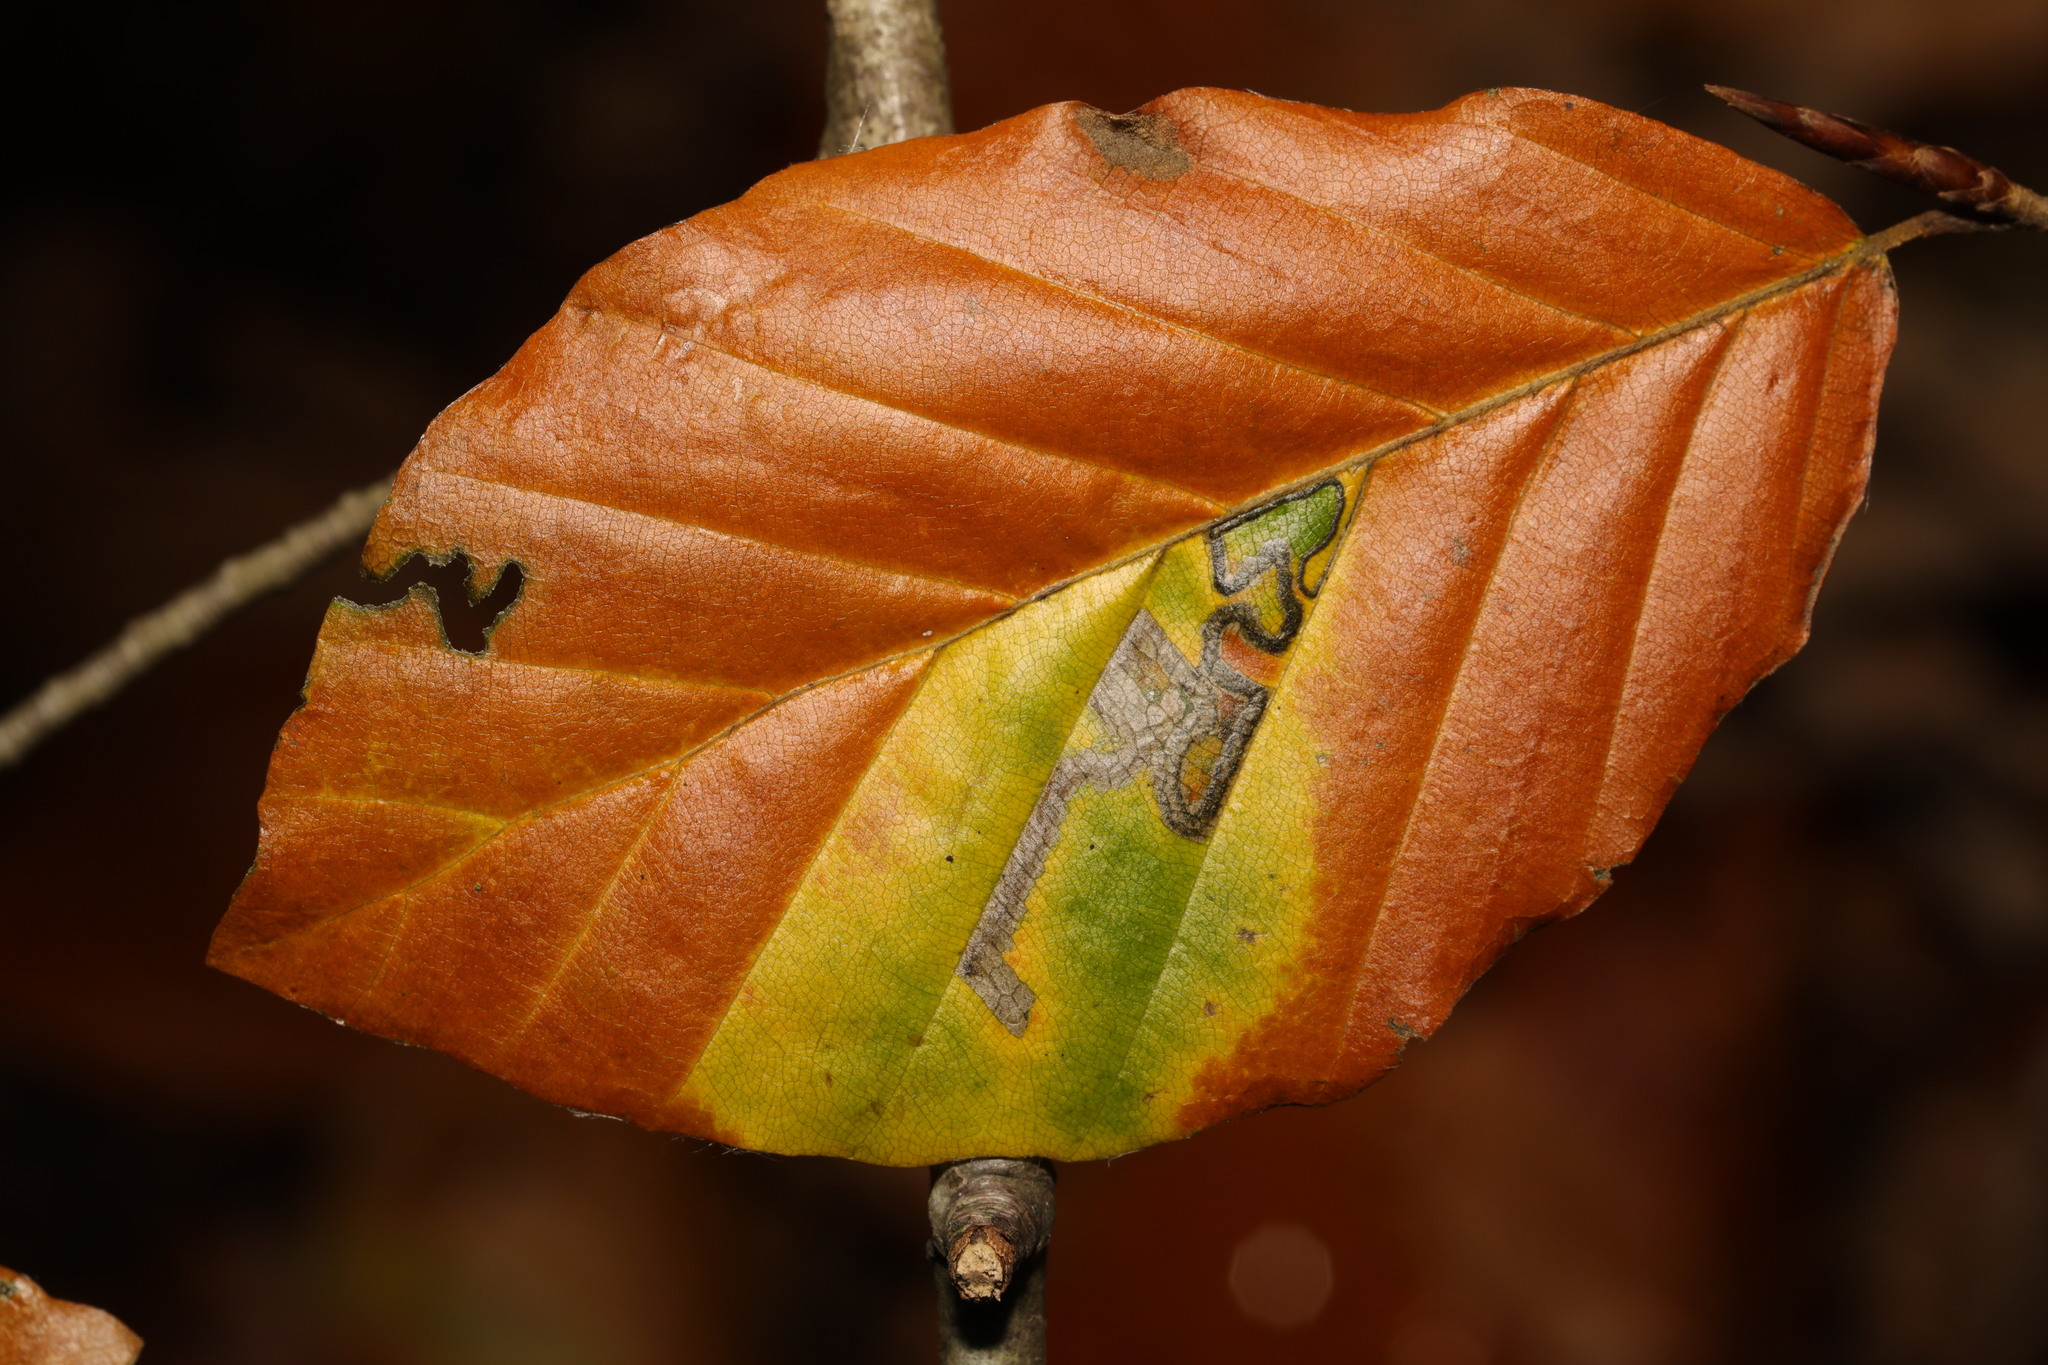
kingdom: Plantae
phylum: Tracheophyta
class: Magnoliopsida
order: Fagales
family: Fagaceae
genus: Fagus
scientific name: Fagus sylvatica
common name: Beech
